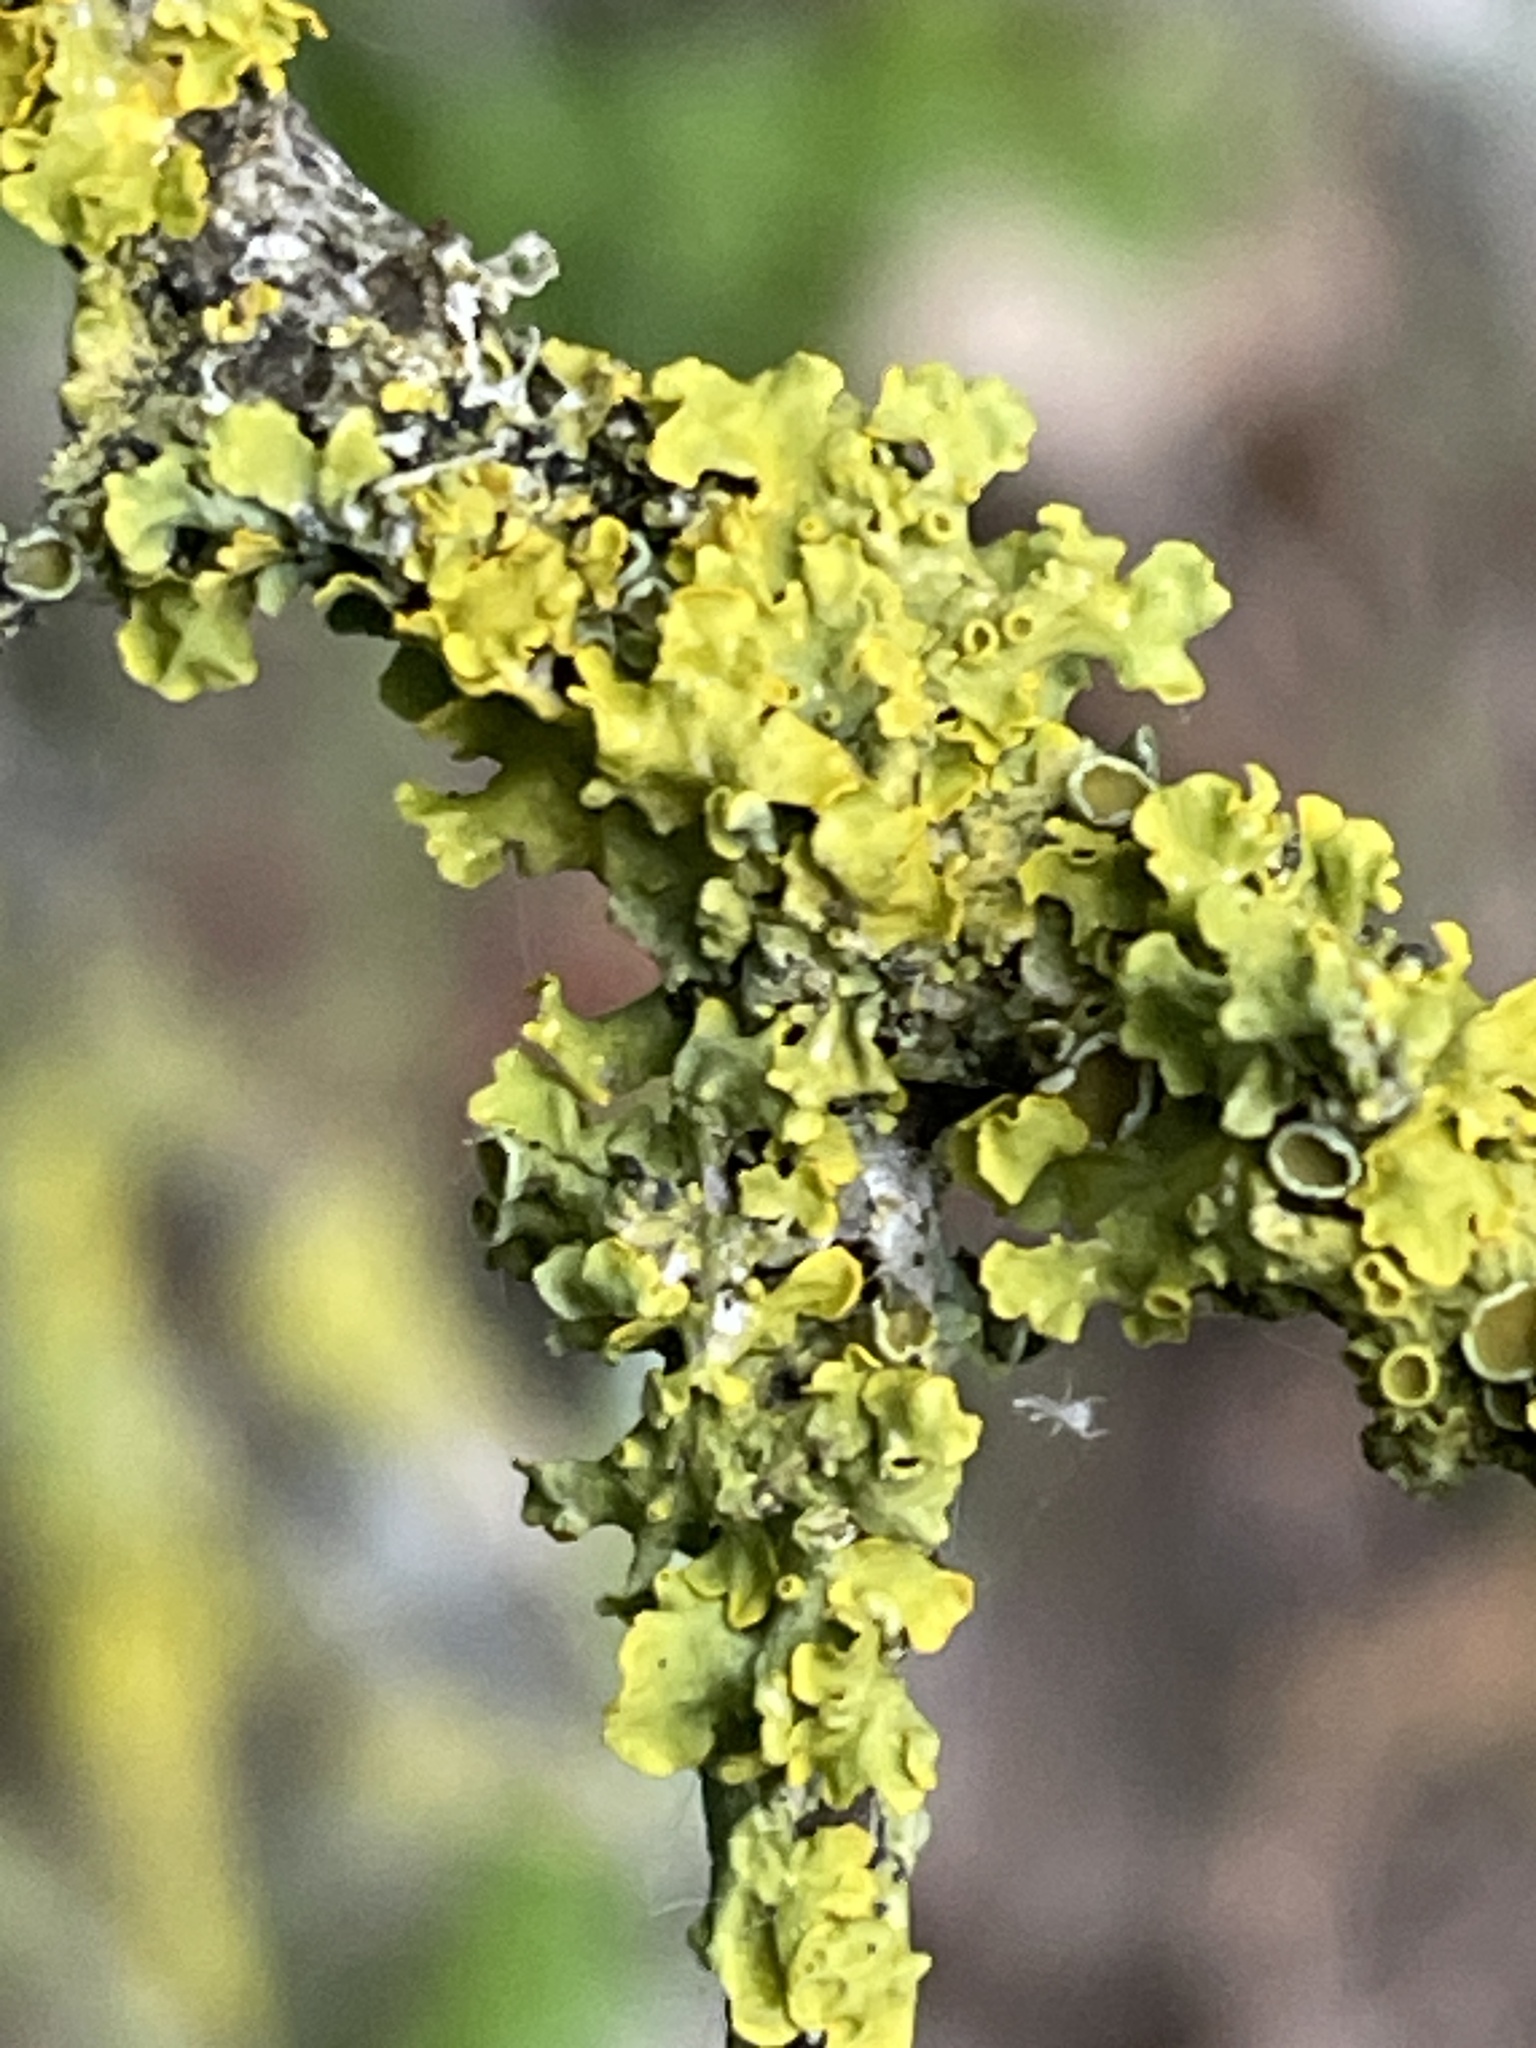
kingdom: Fungi
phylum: Ascomycota
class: Lecanoromycetes
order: Teloschistales
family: Teloschistaceae
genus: Xanthoria
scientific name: Xanthoria parietina
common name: Common orange lichen
